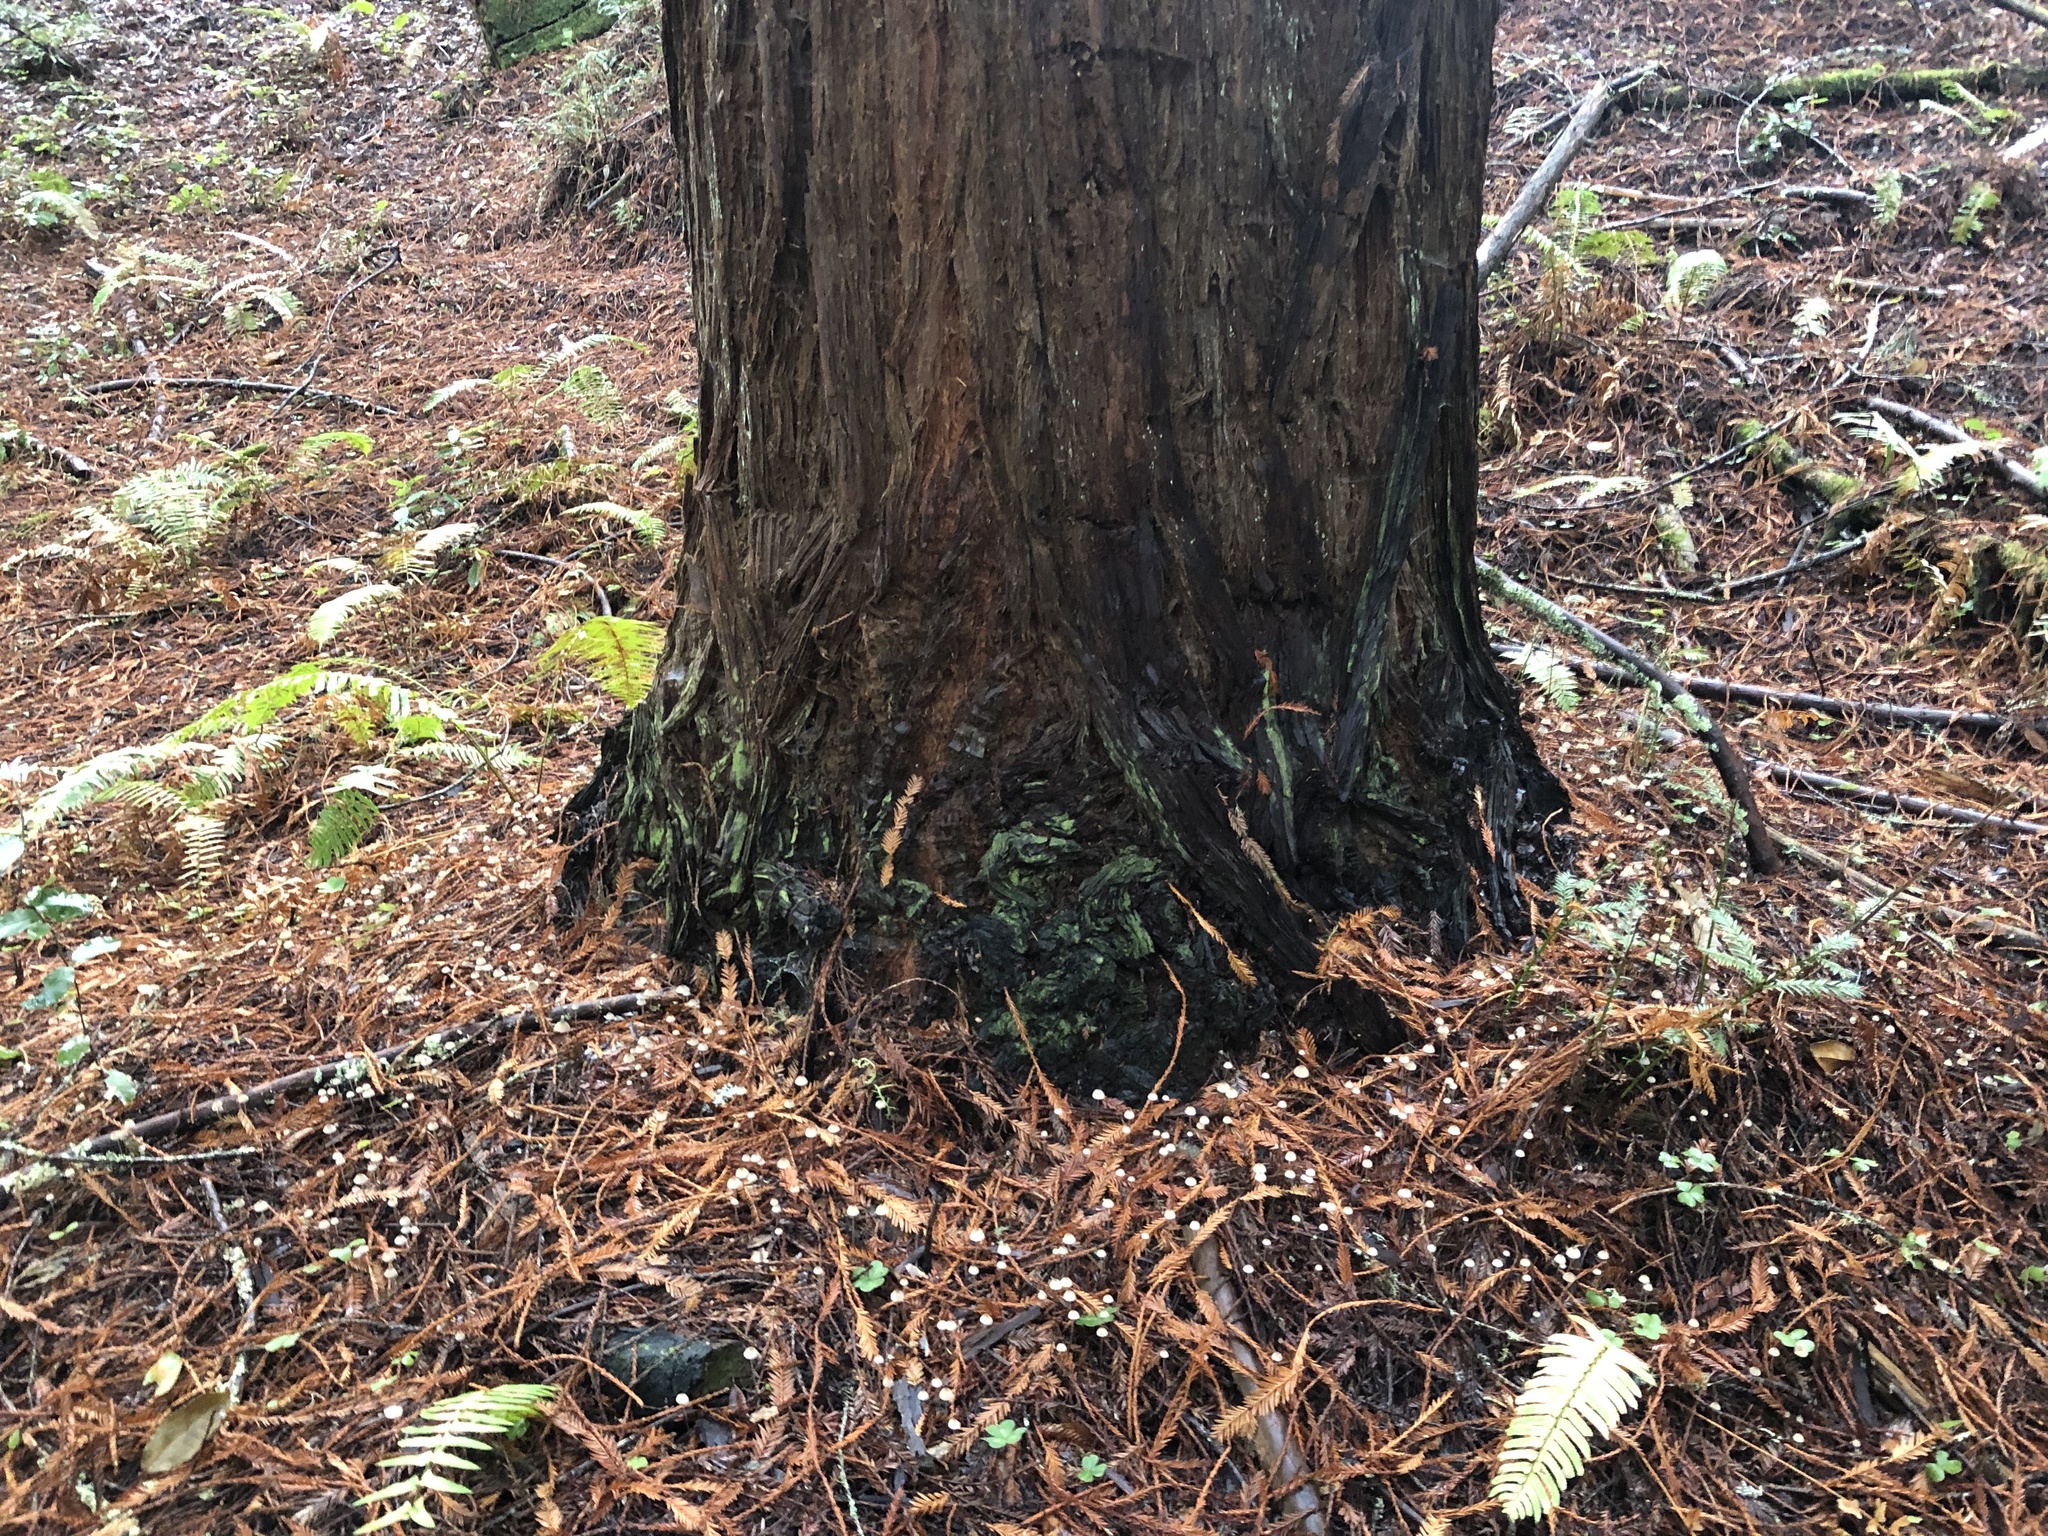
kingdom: Plantae
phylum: Tracheophyta
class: Pinopsida
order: Pinales
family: Cupressaceae
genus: Sequoia
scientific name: Sequoia sempervirens
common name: Coast redwood
